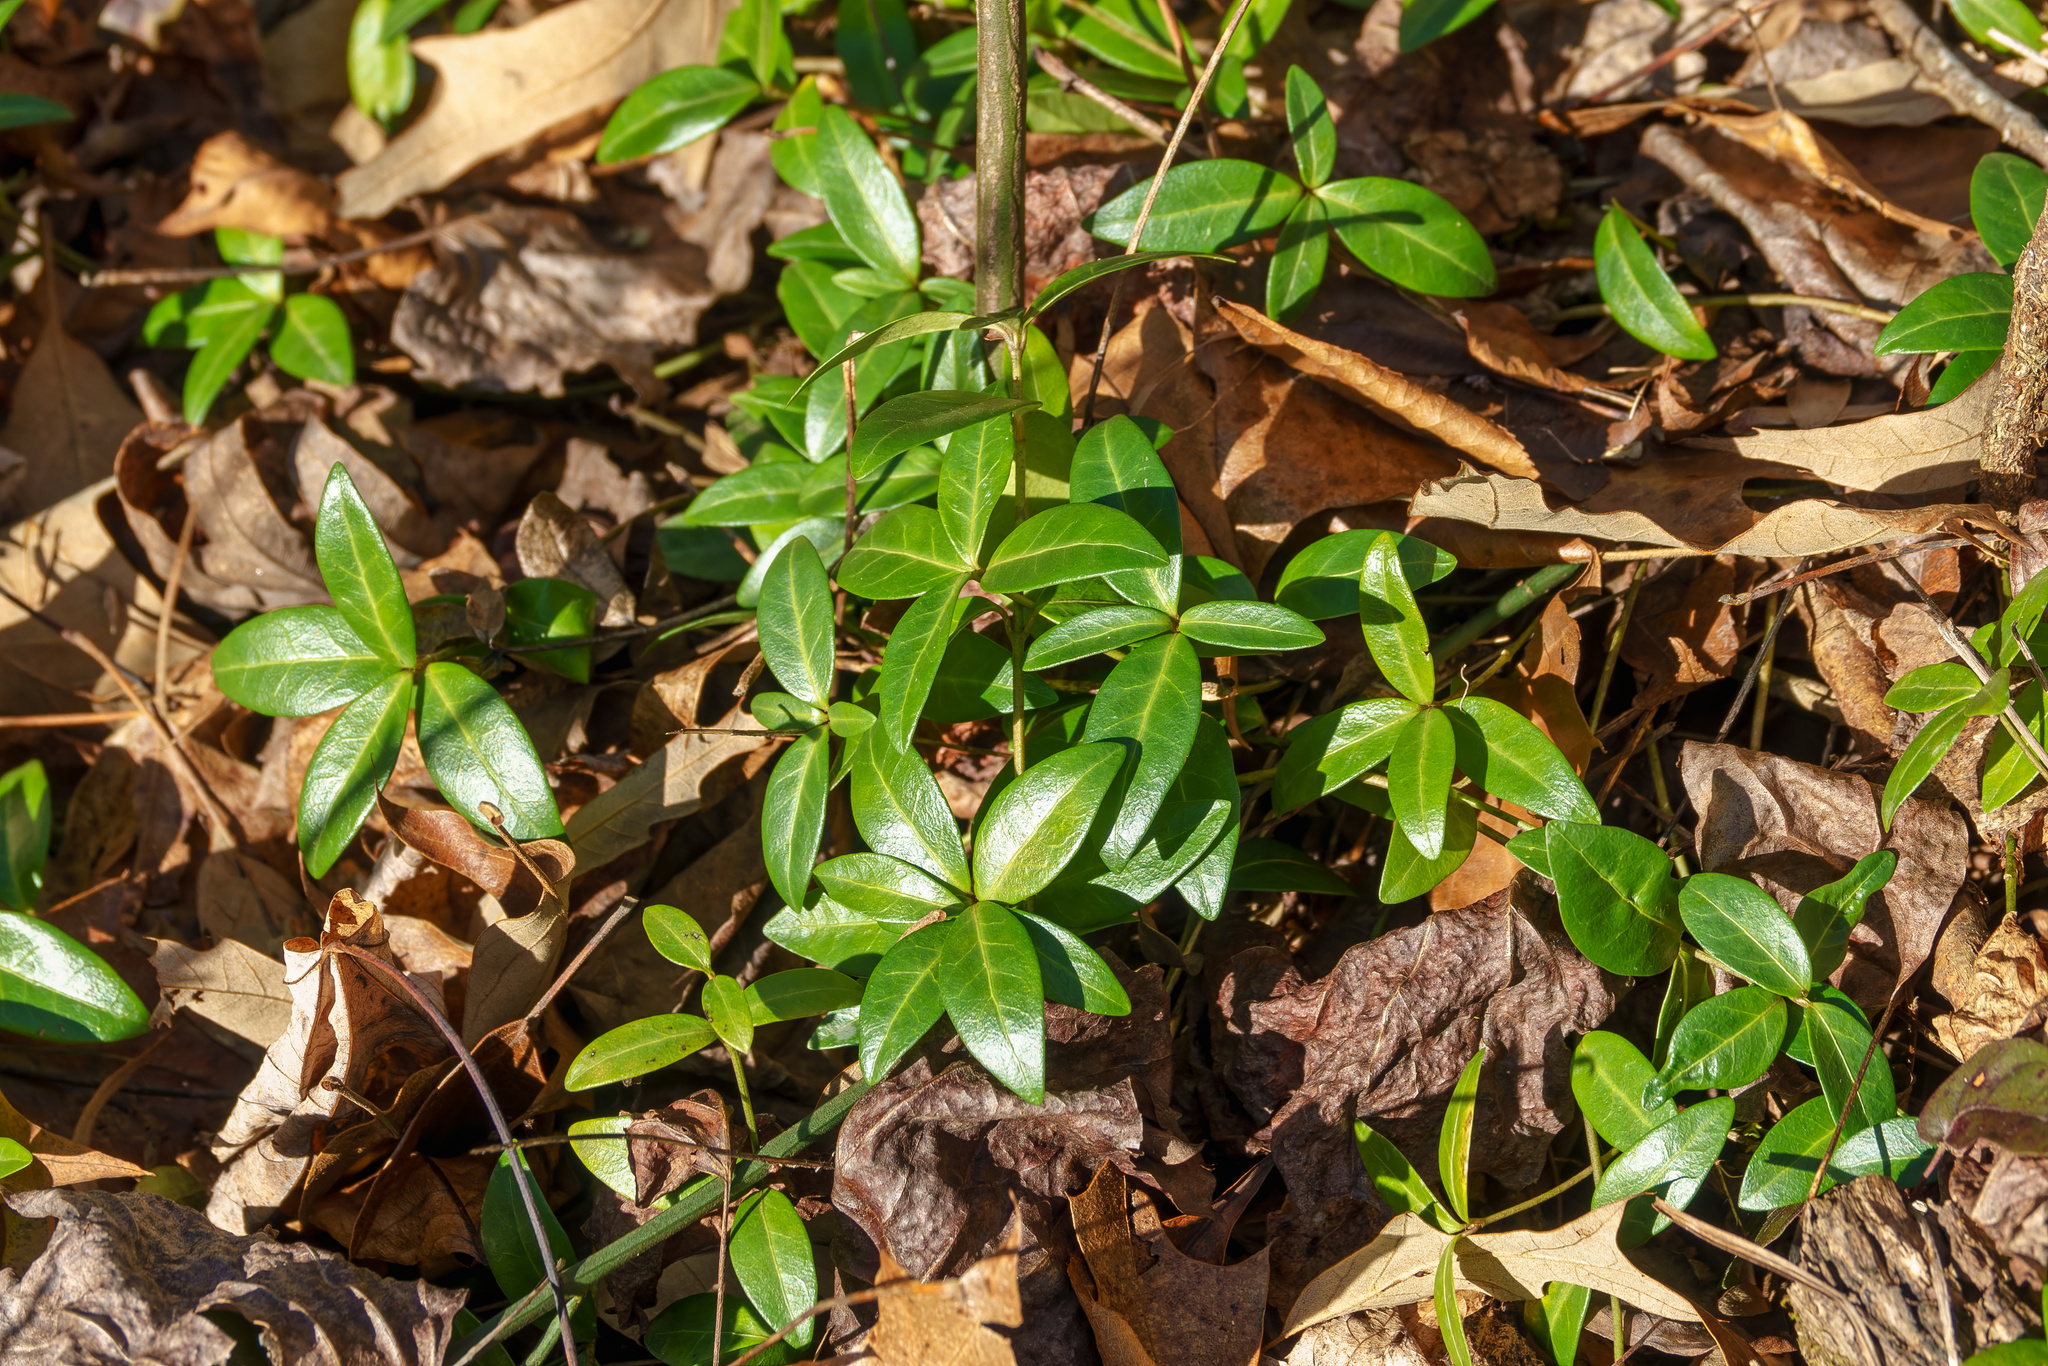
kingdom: Plantae
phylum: Tracheophyta
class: Magnoliopsida
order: Gentianales
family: Apocynaceae
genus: Vinca
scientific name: Vinca minor
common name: Lesser periwinkle
